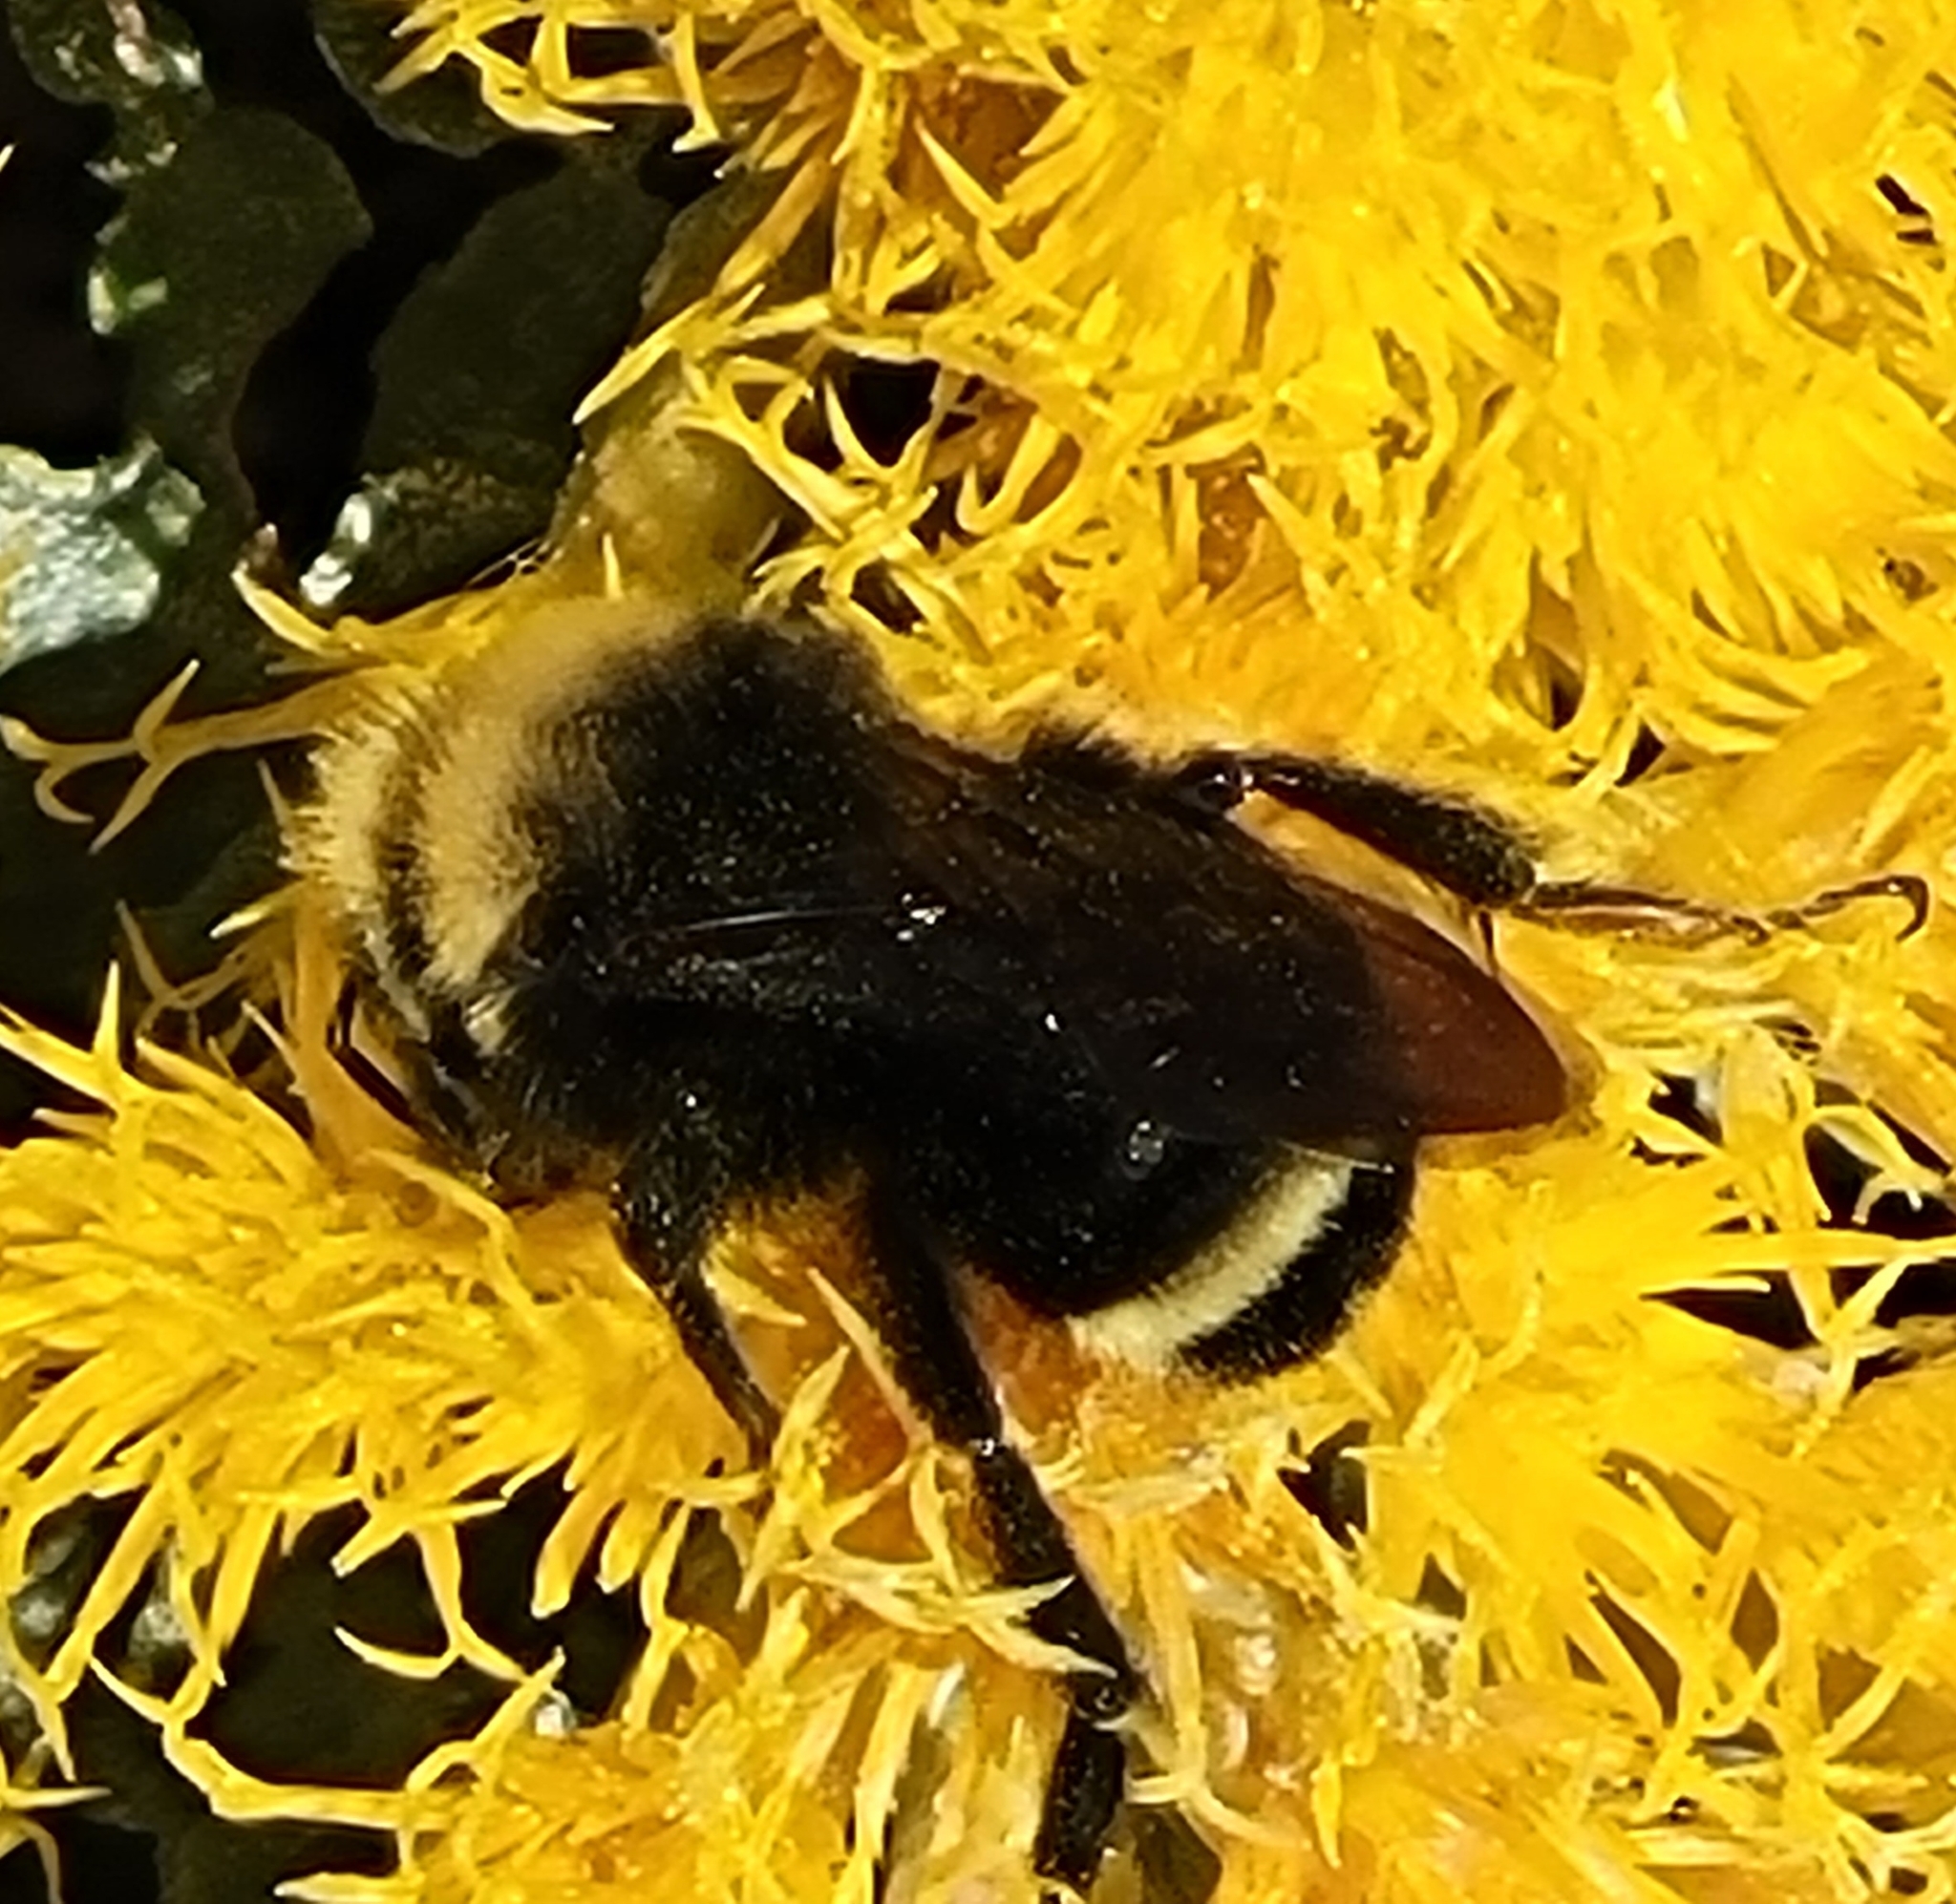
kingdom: Animalia
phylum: Arthropoda
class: Insecta
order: Hymenoptera
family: Apidae
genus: Bombus
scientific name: Bombus vosnesenskii
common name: Vosnesensky bumble bee
